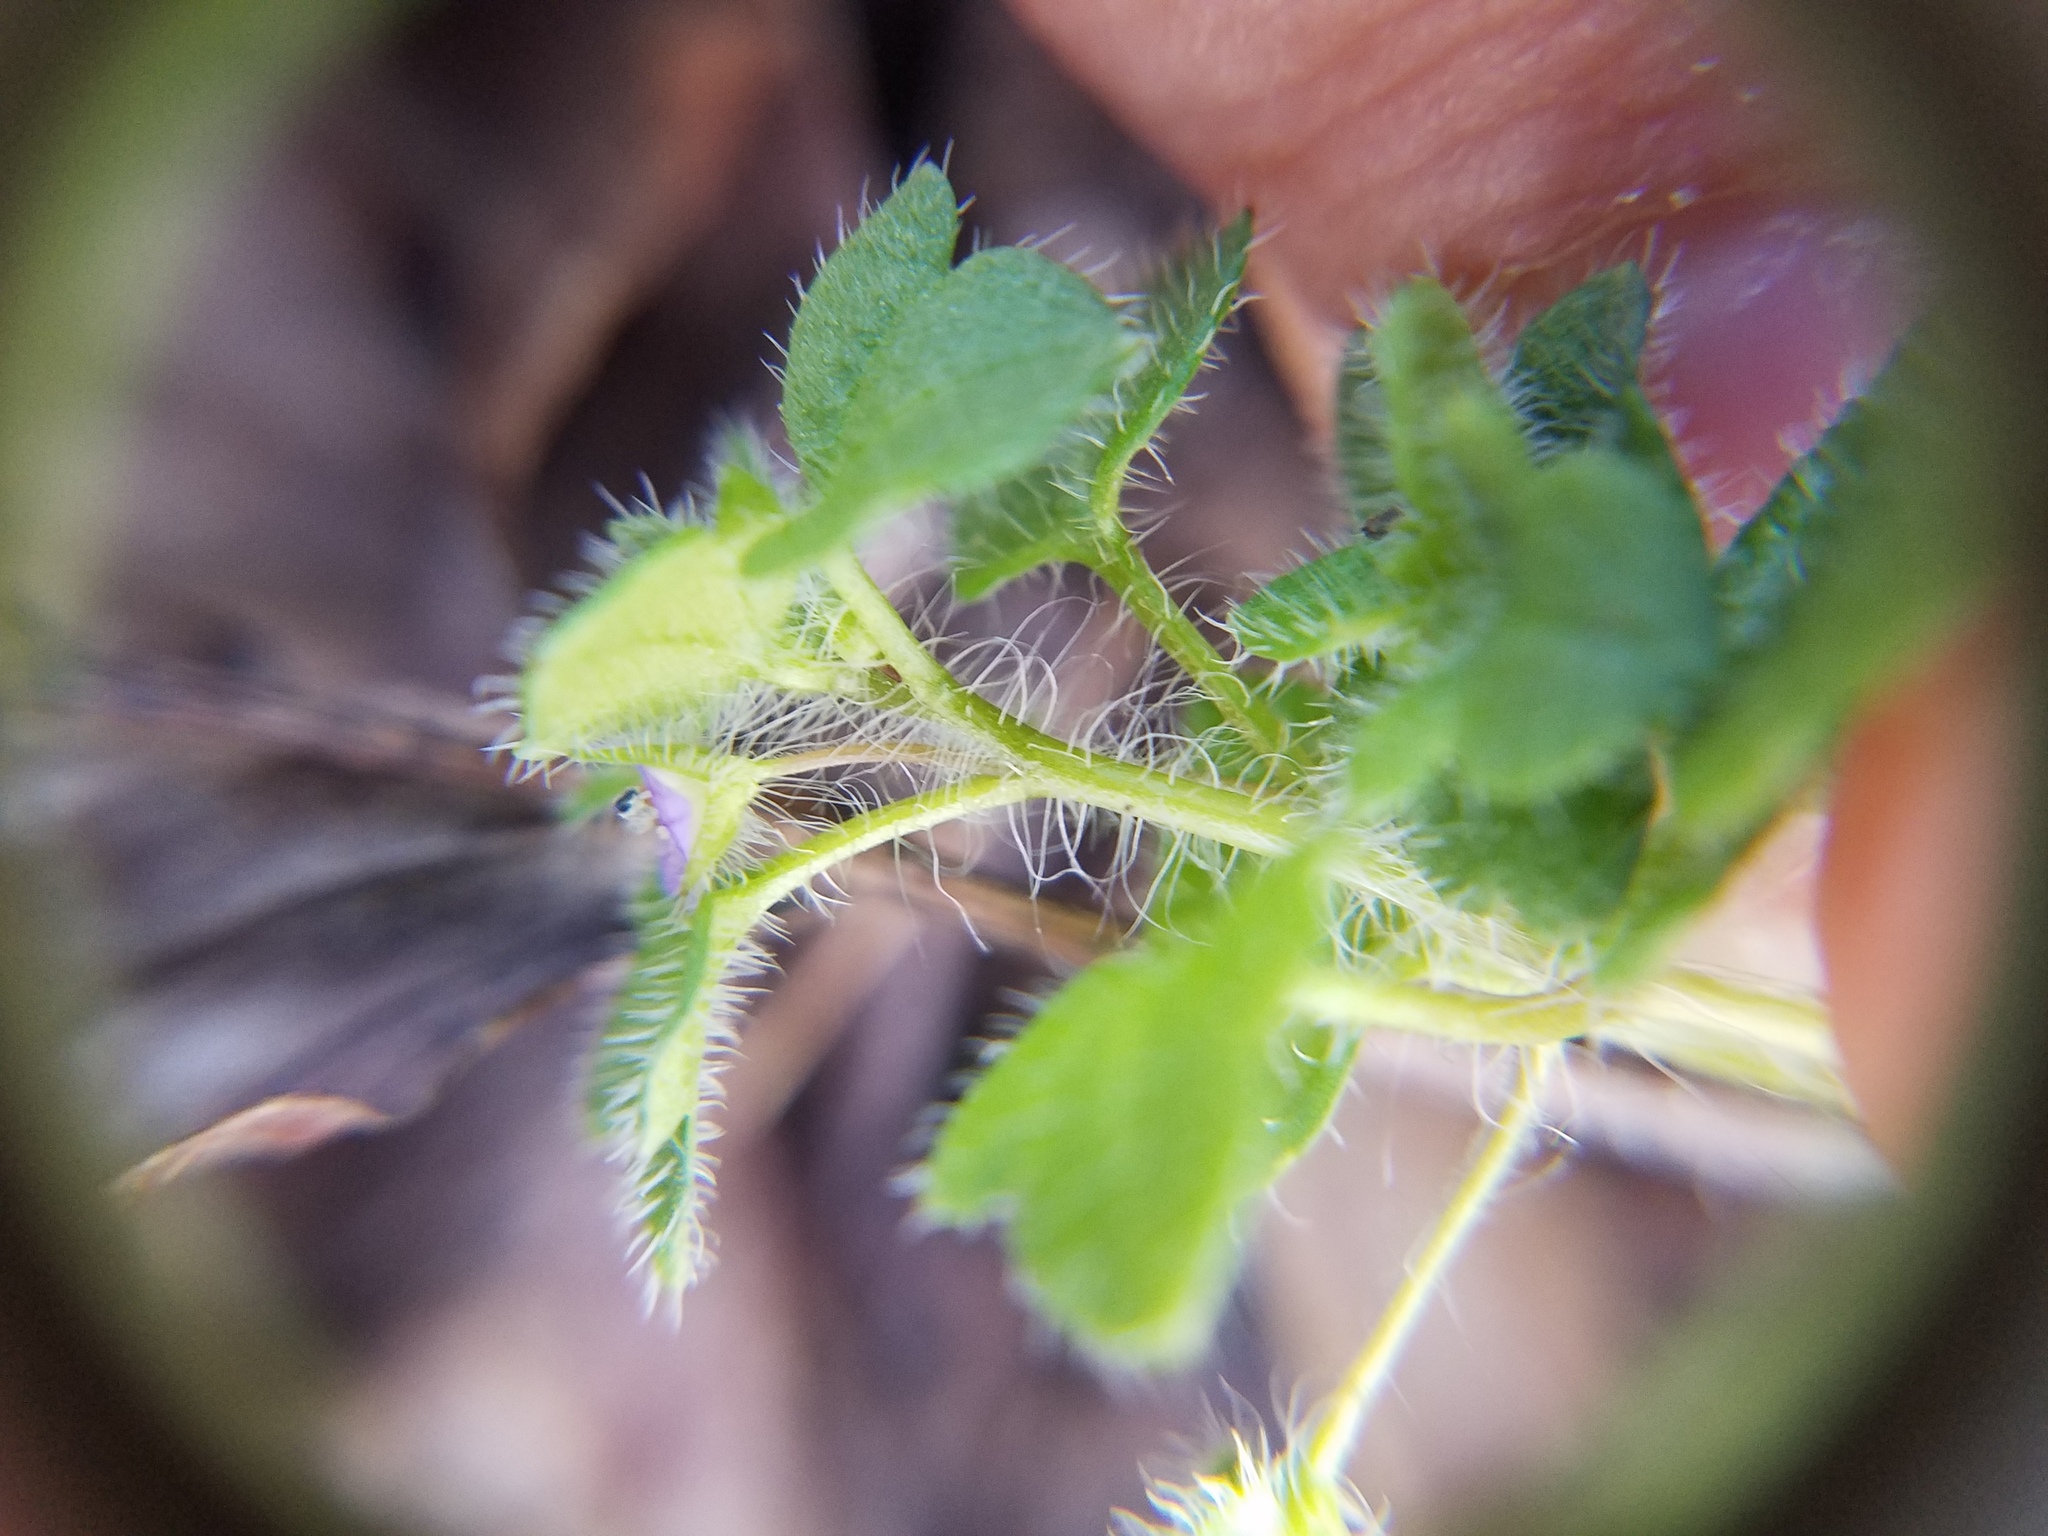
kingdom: Plantae
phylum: Tracheophyta
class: Magnoliopsida
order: Lamiales
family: Plantaginaceae
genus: Veronica
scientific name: Veronica hederifolia
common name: Ivy-leaved speedwell
